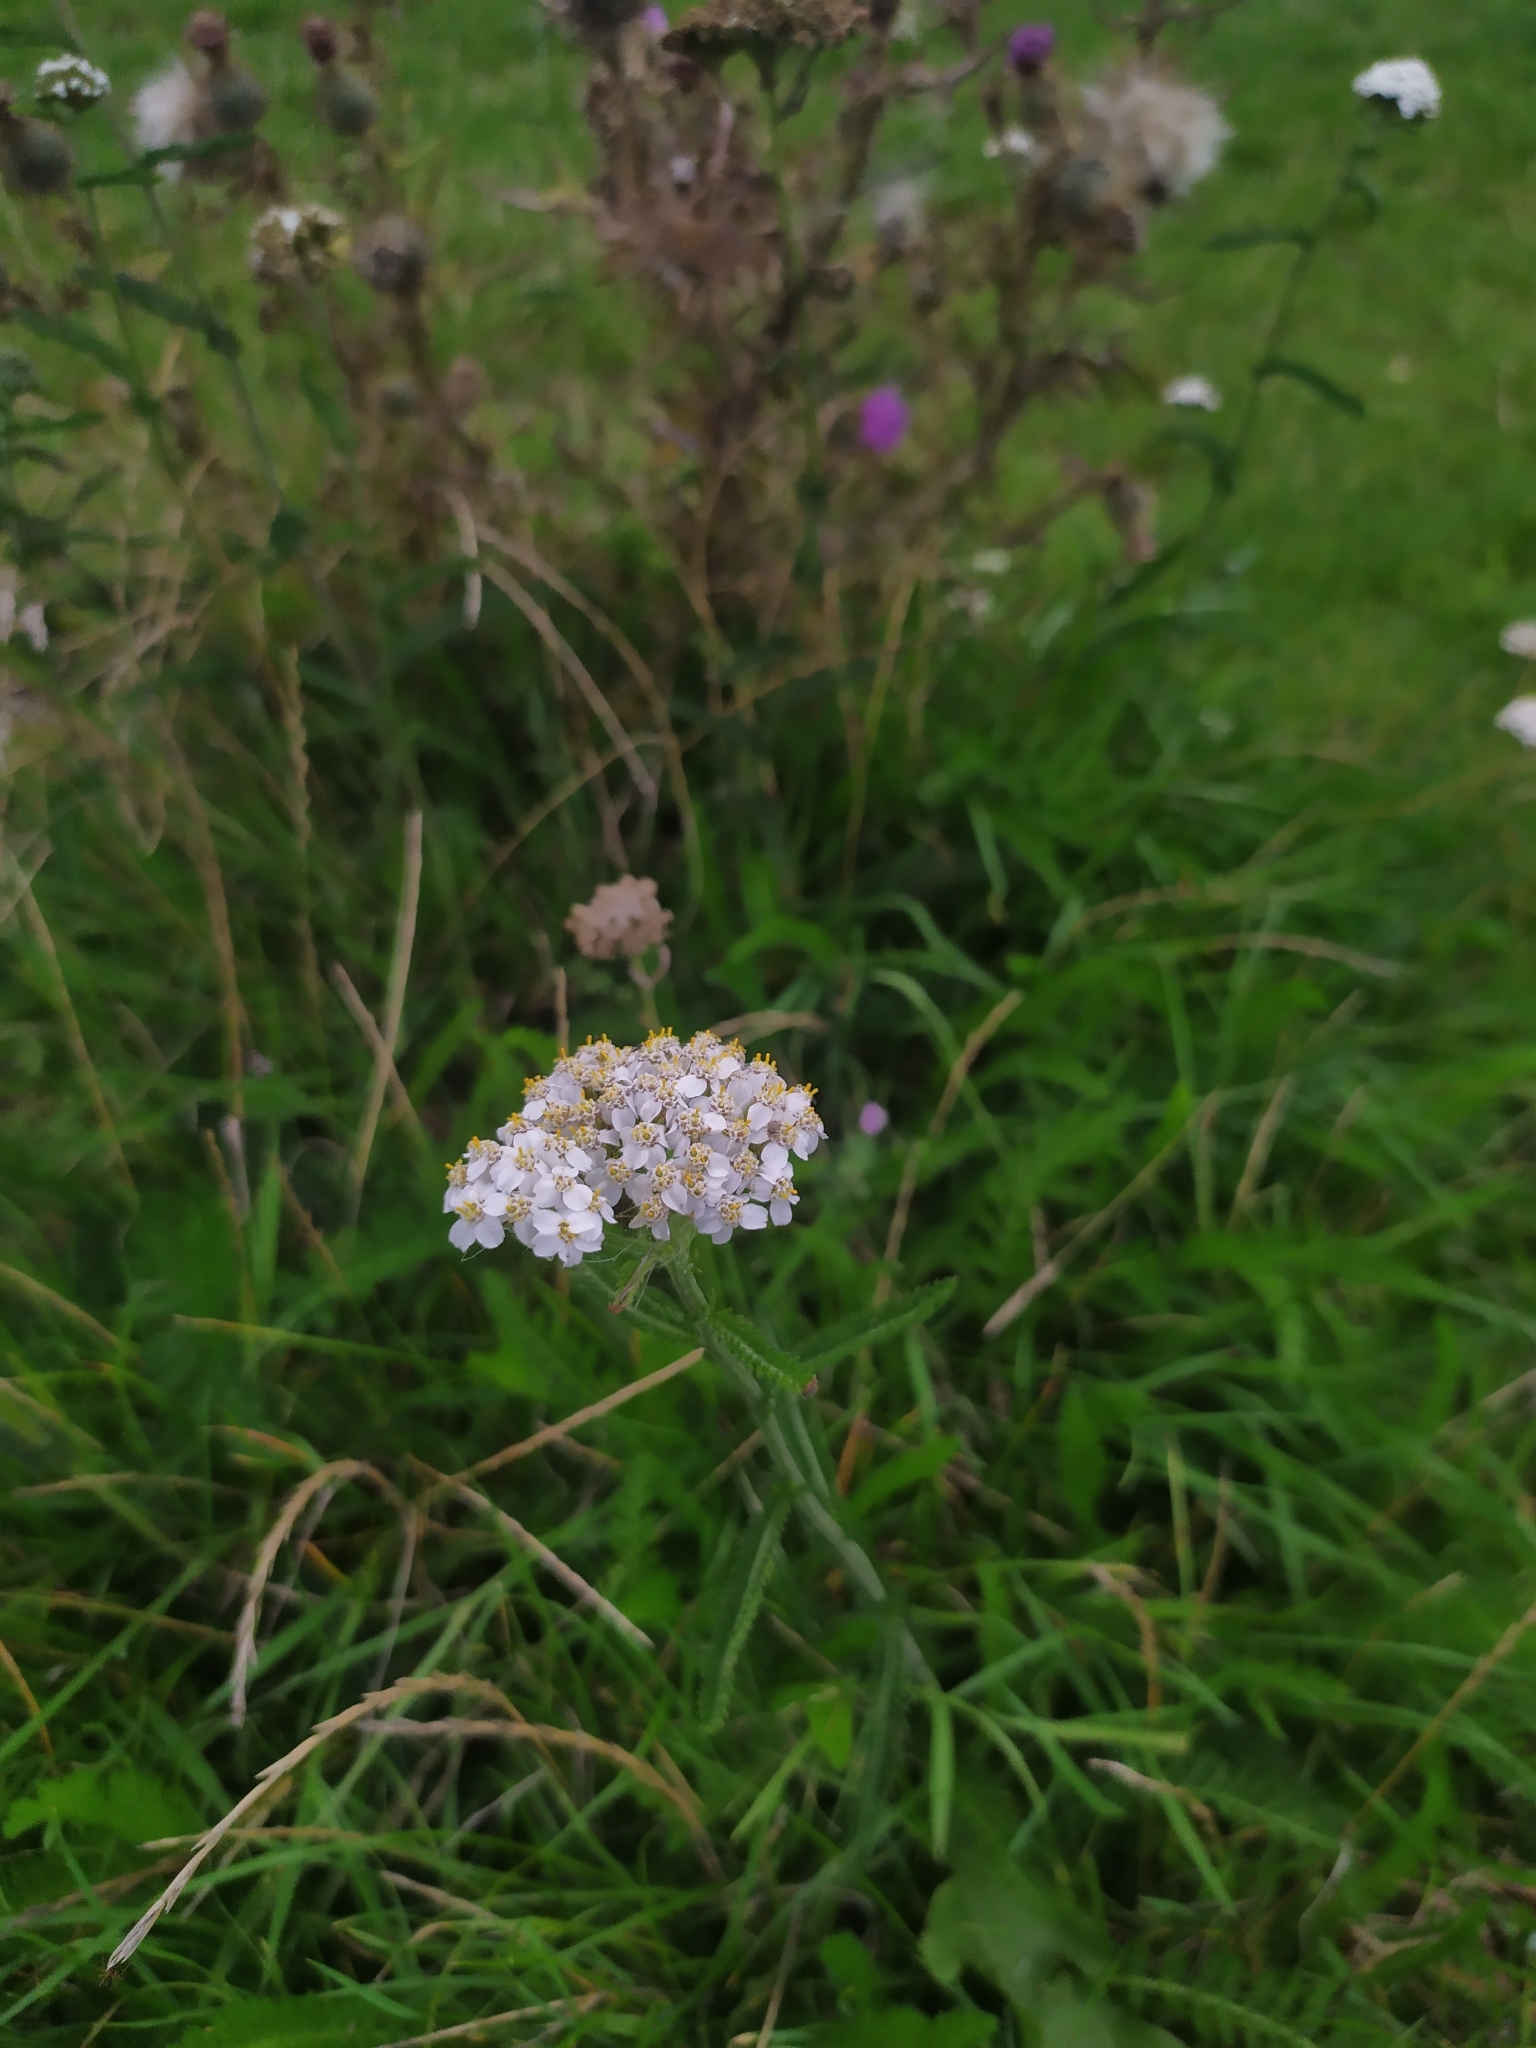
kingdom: Plantae
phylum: Tracheophyta
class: Magnoliopsida
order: Asterales
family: Asteraceae
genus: Achillea
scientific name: Achillea millefolium
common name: Yarrow
